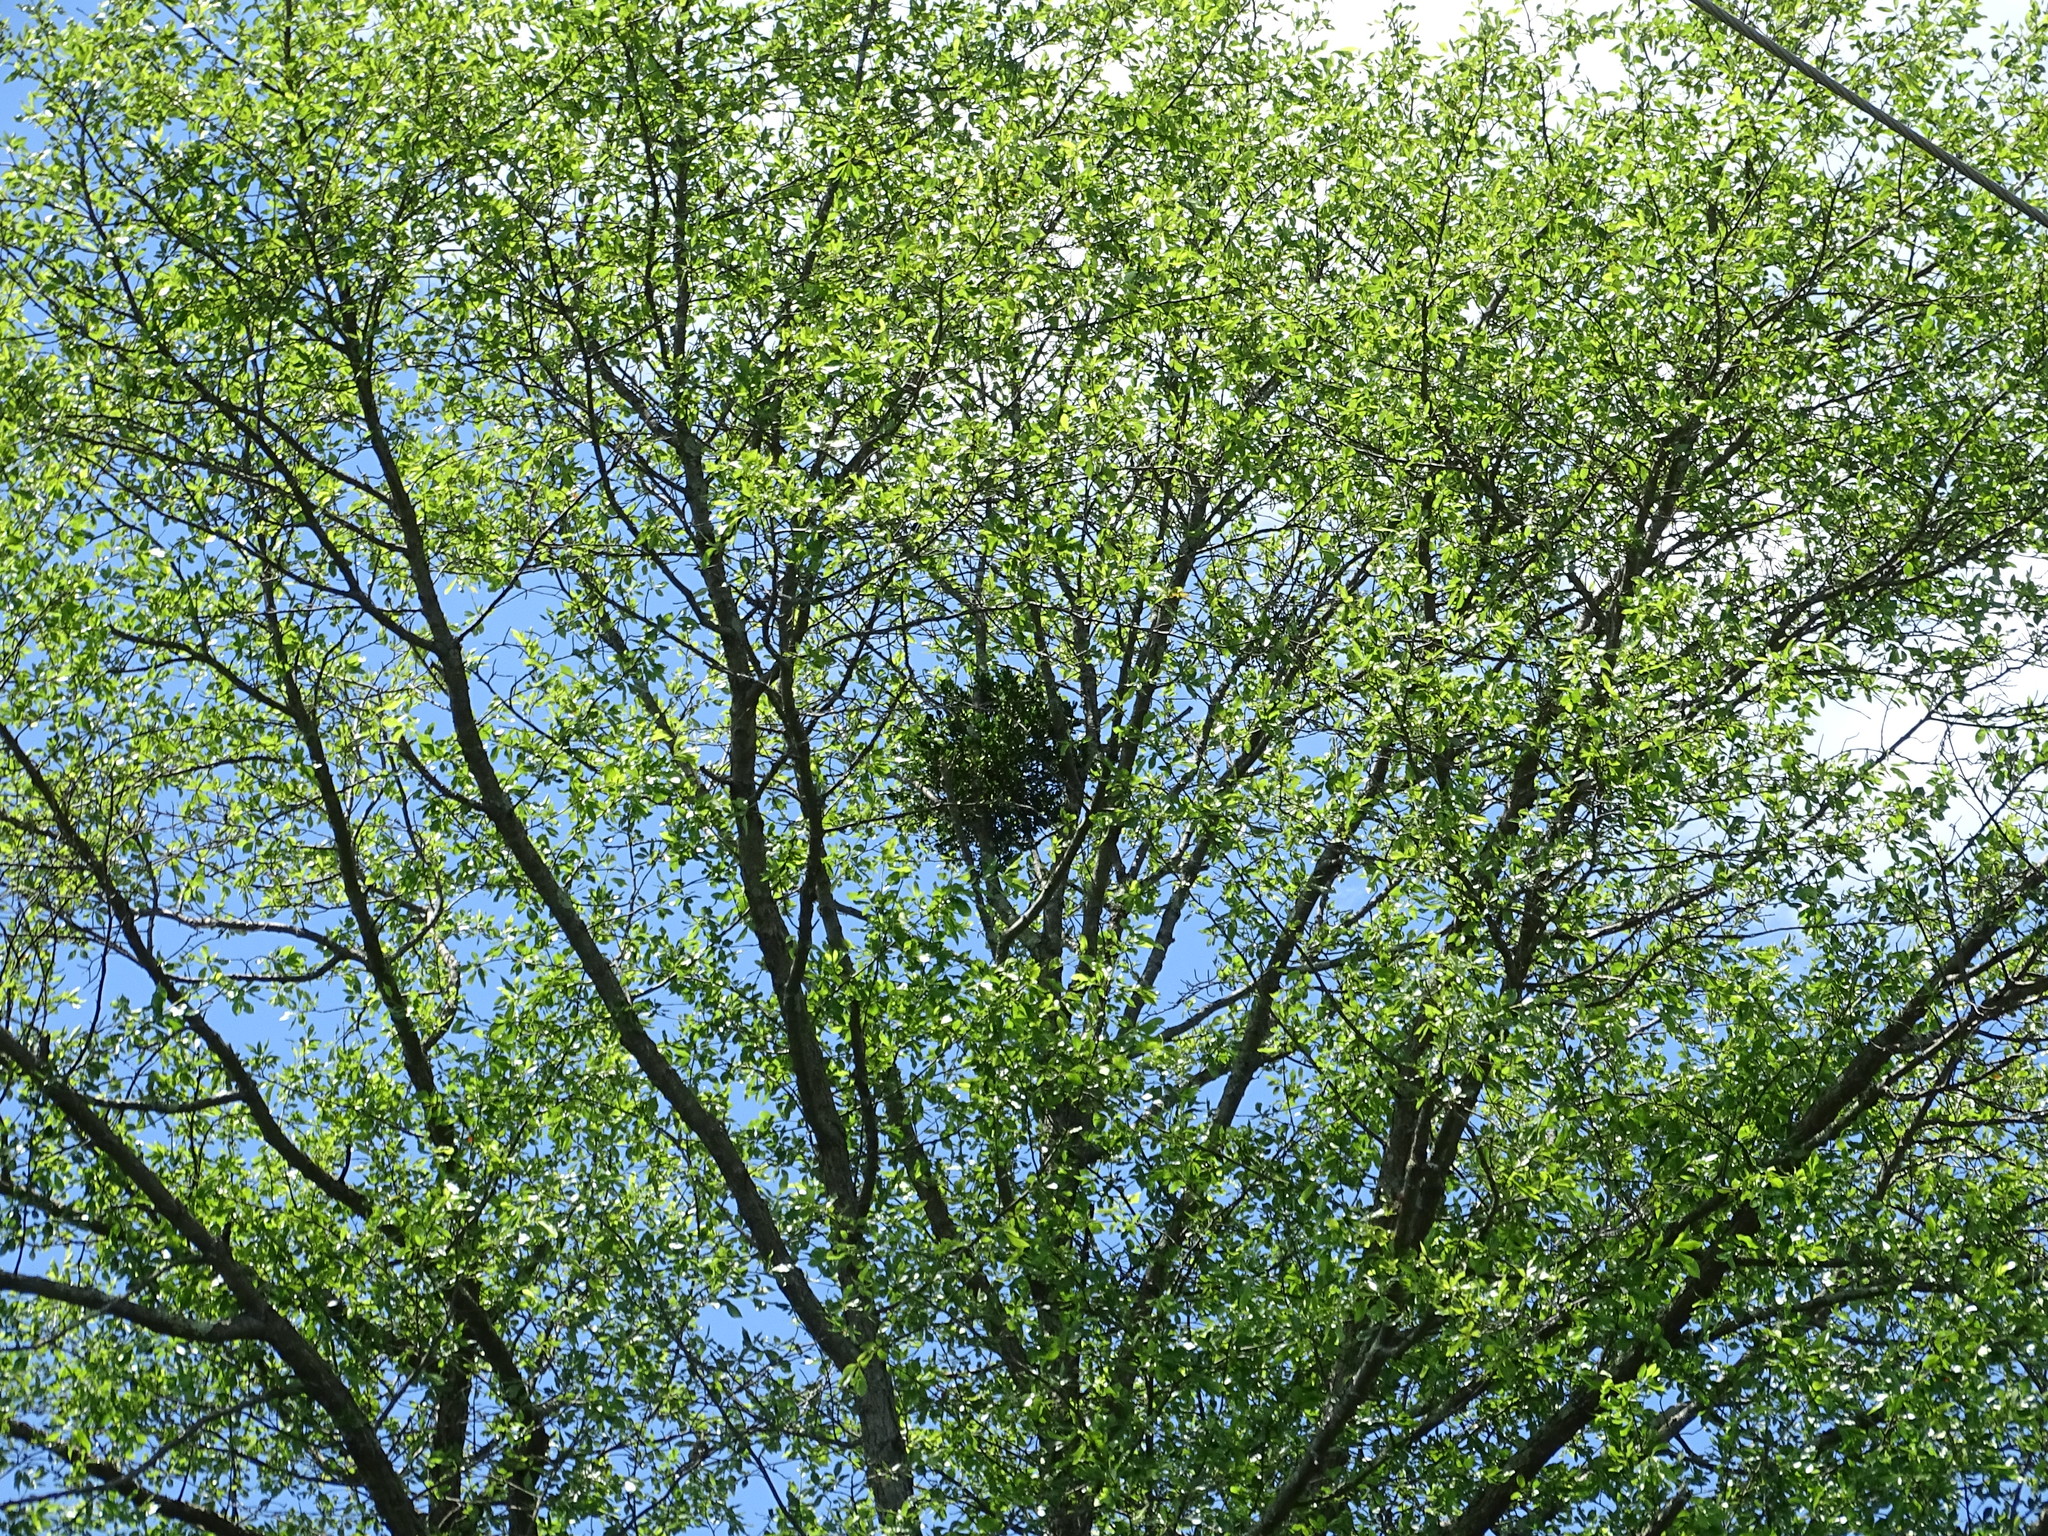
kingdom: Plantae
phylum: Tracheophyta
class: Magnoliopsida
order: Santalales
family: Viscaceae
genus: Phoradendron
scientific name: Phoradendron leucarpum
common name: Pacific mistletoe
